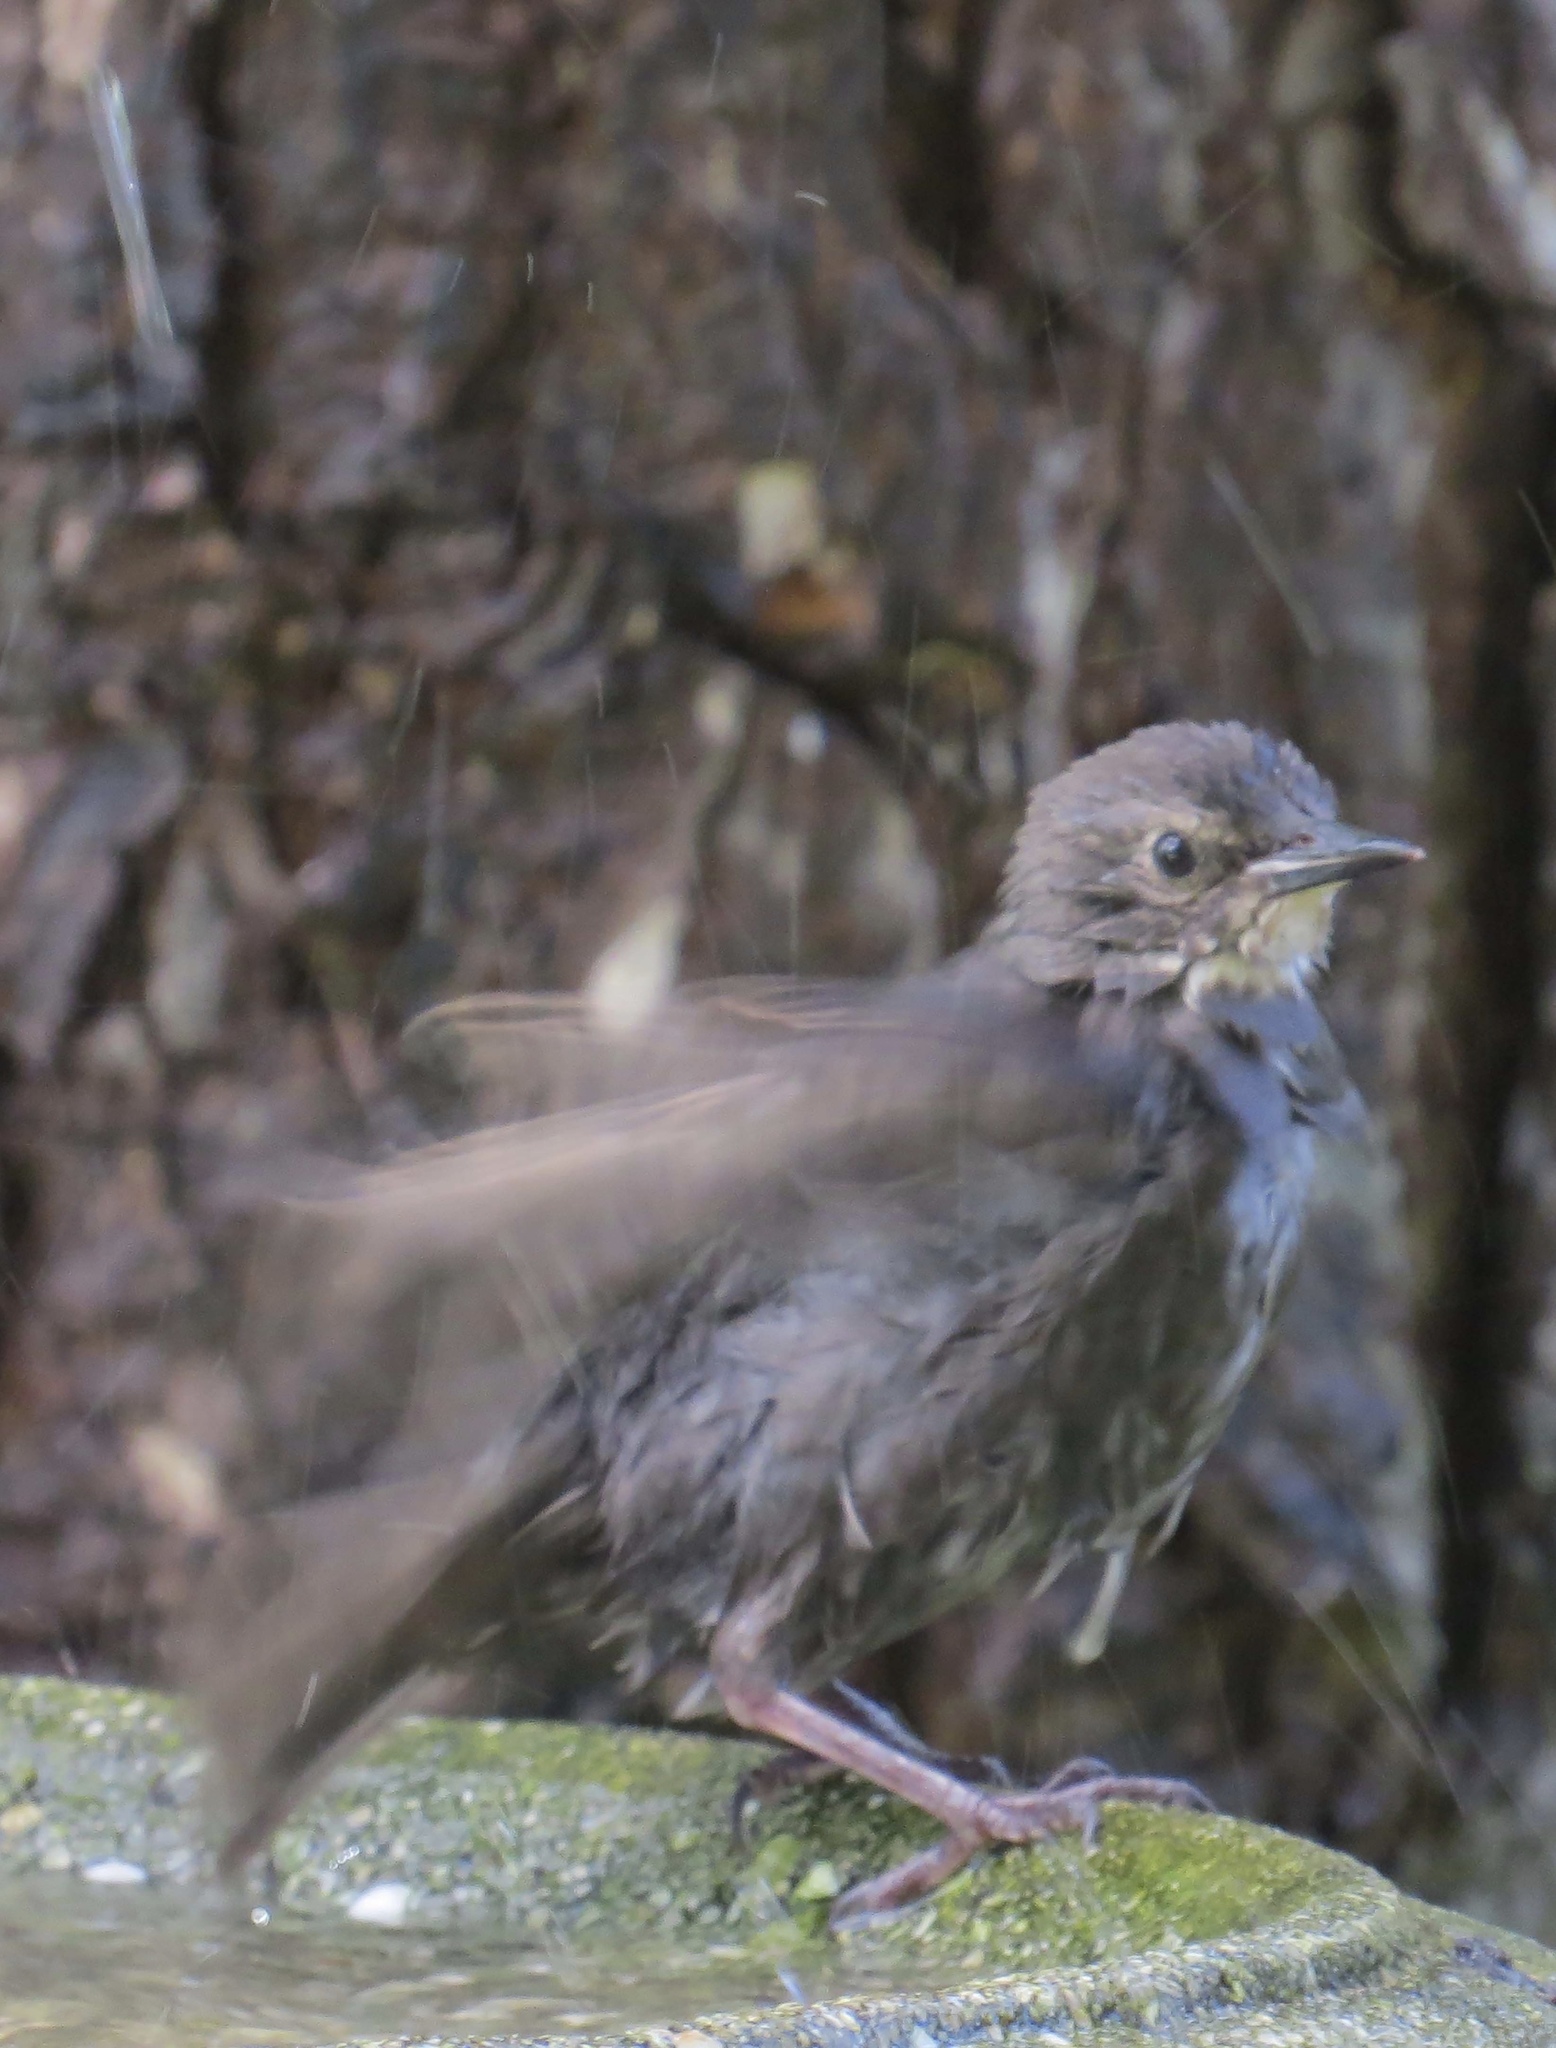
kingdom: Animalia
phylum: Chordata
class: Aves
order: Passeriformes
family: Sturnidae
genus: Sturnus
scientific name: Sturnus vulgaris
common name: Common starling
